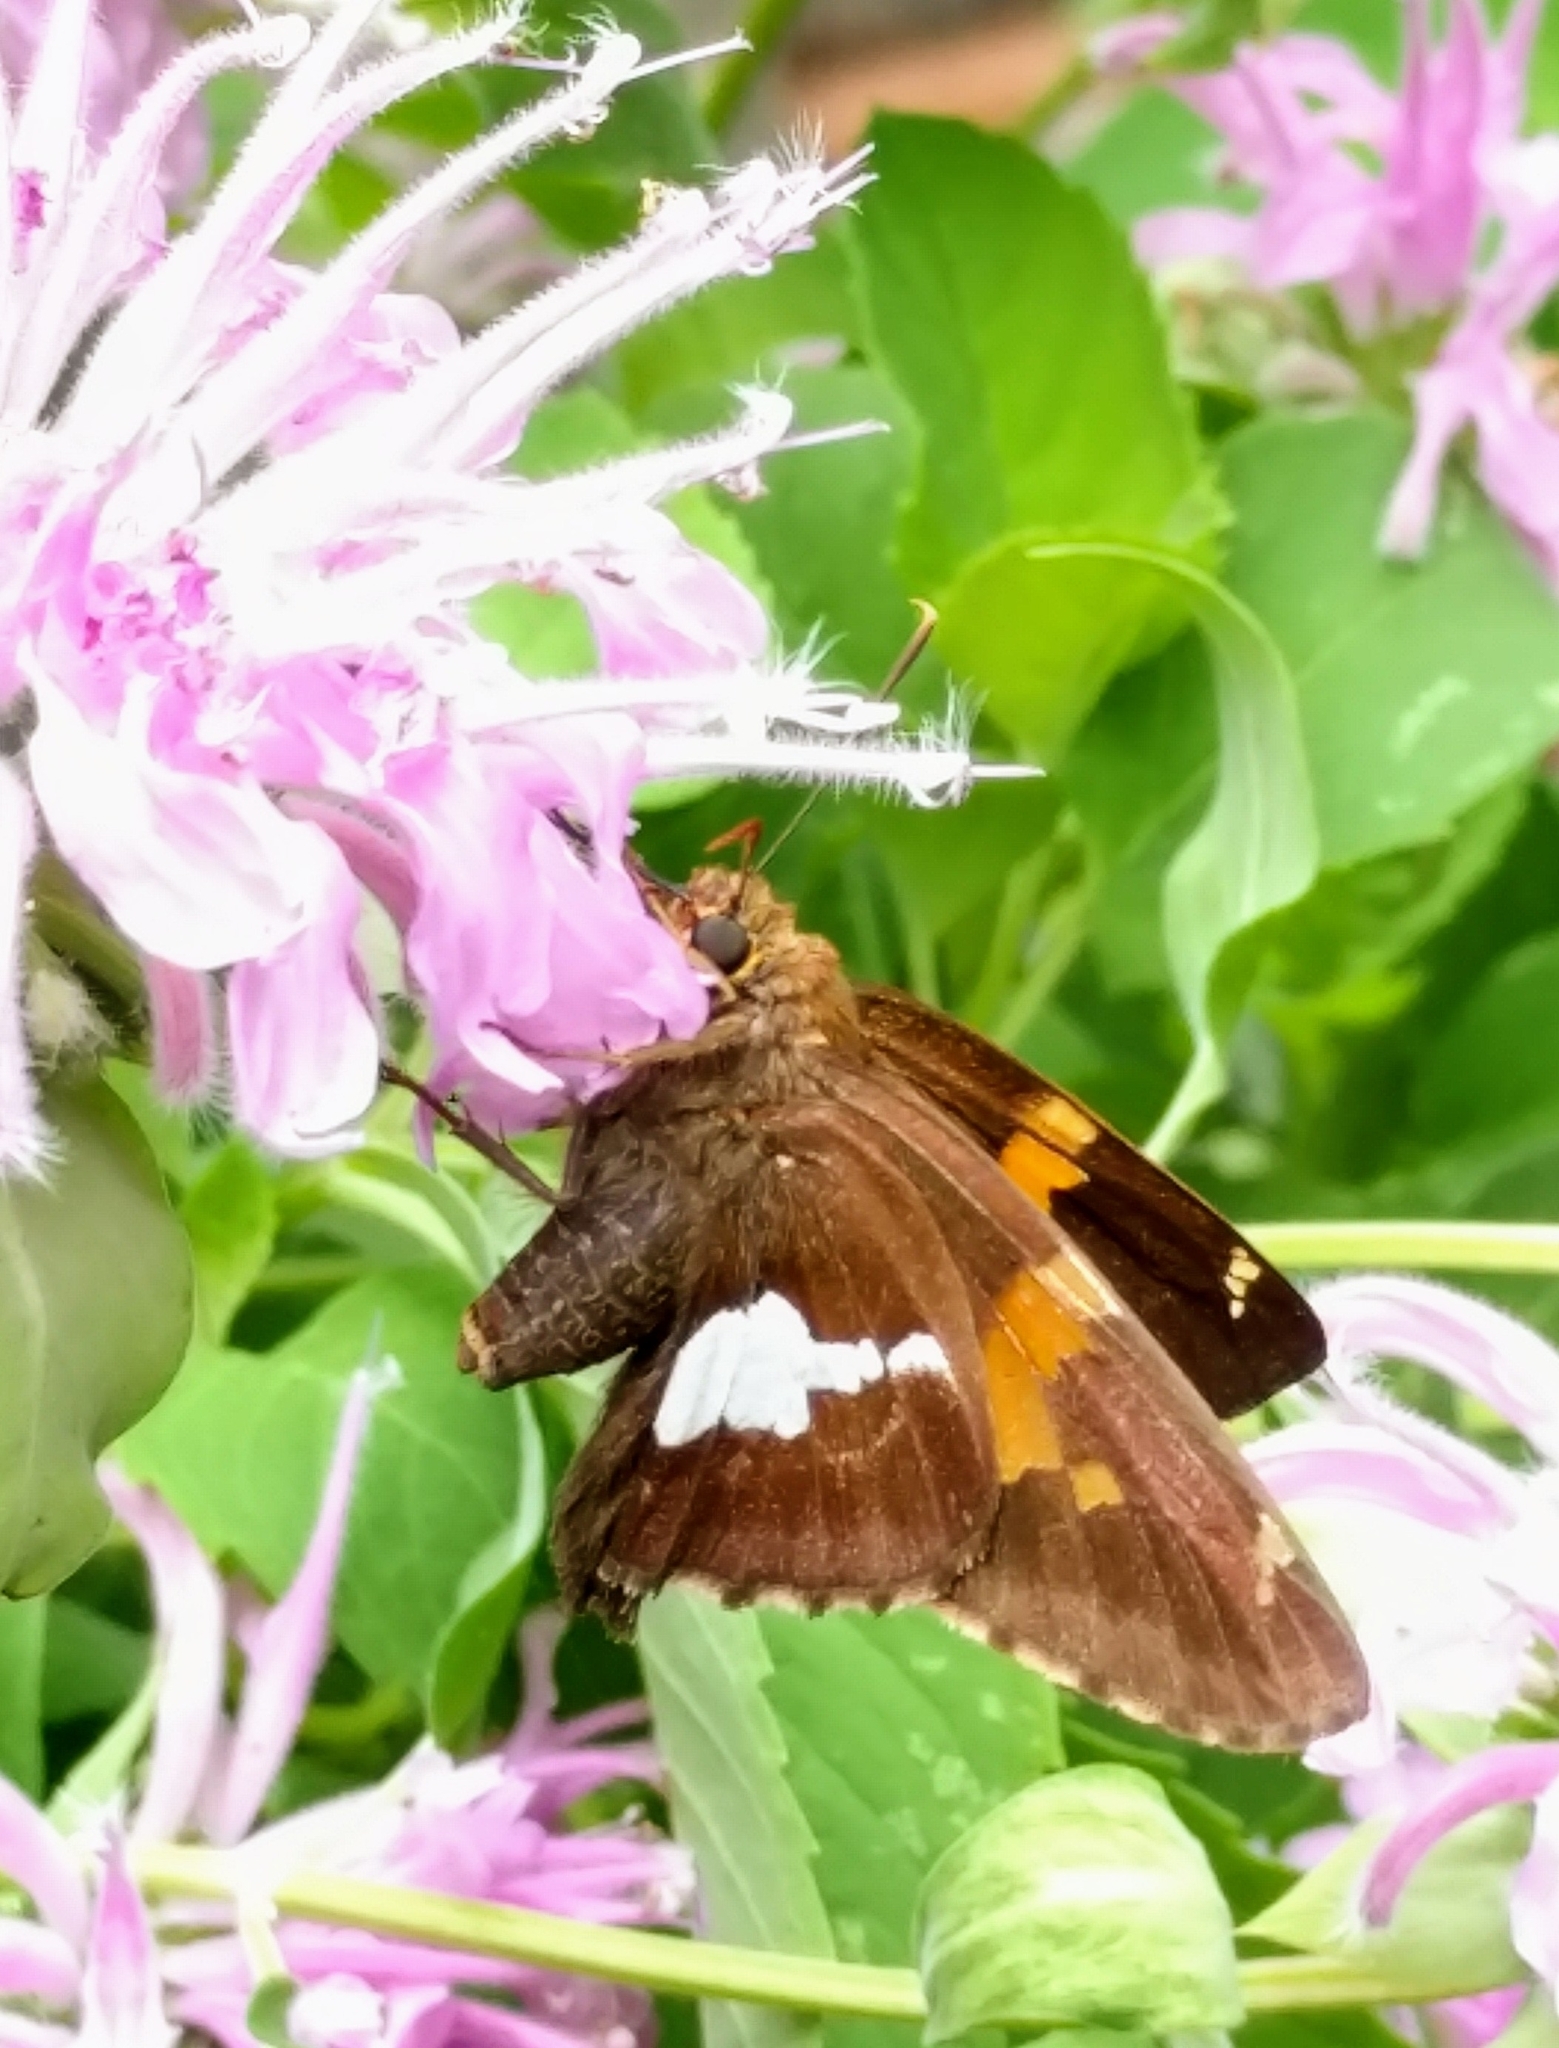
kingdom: Animalia
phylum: Arthropoda
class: Insecta
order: Lepidoptera
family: Hesperiidae
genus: Epargyreus
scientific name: Epargyreus clarus
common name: Silver-spotted skipper
